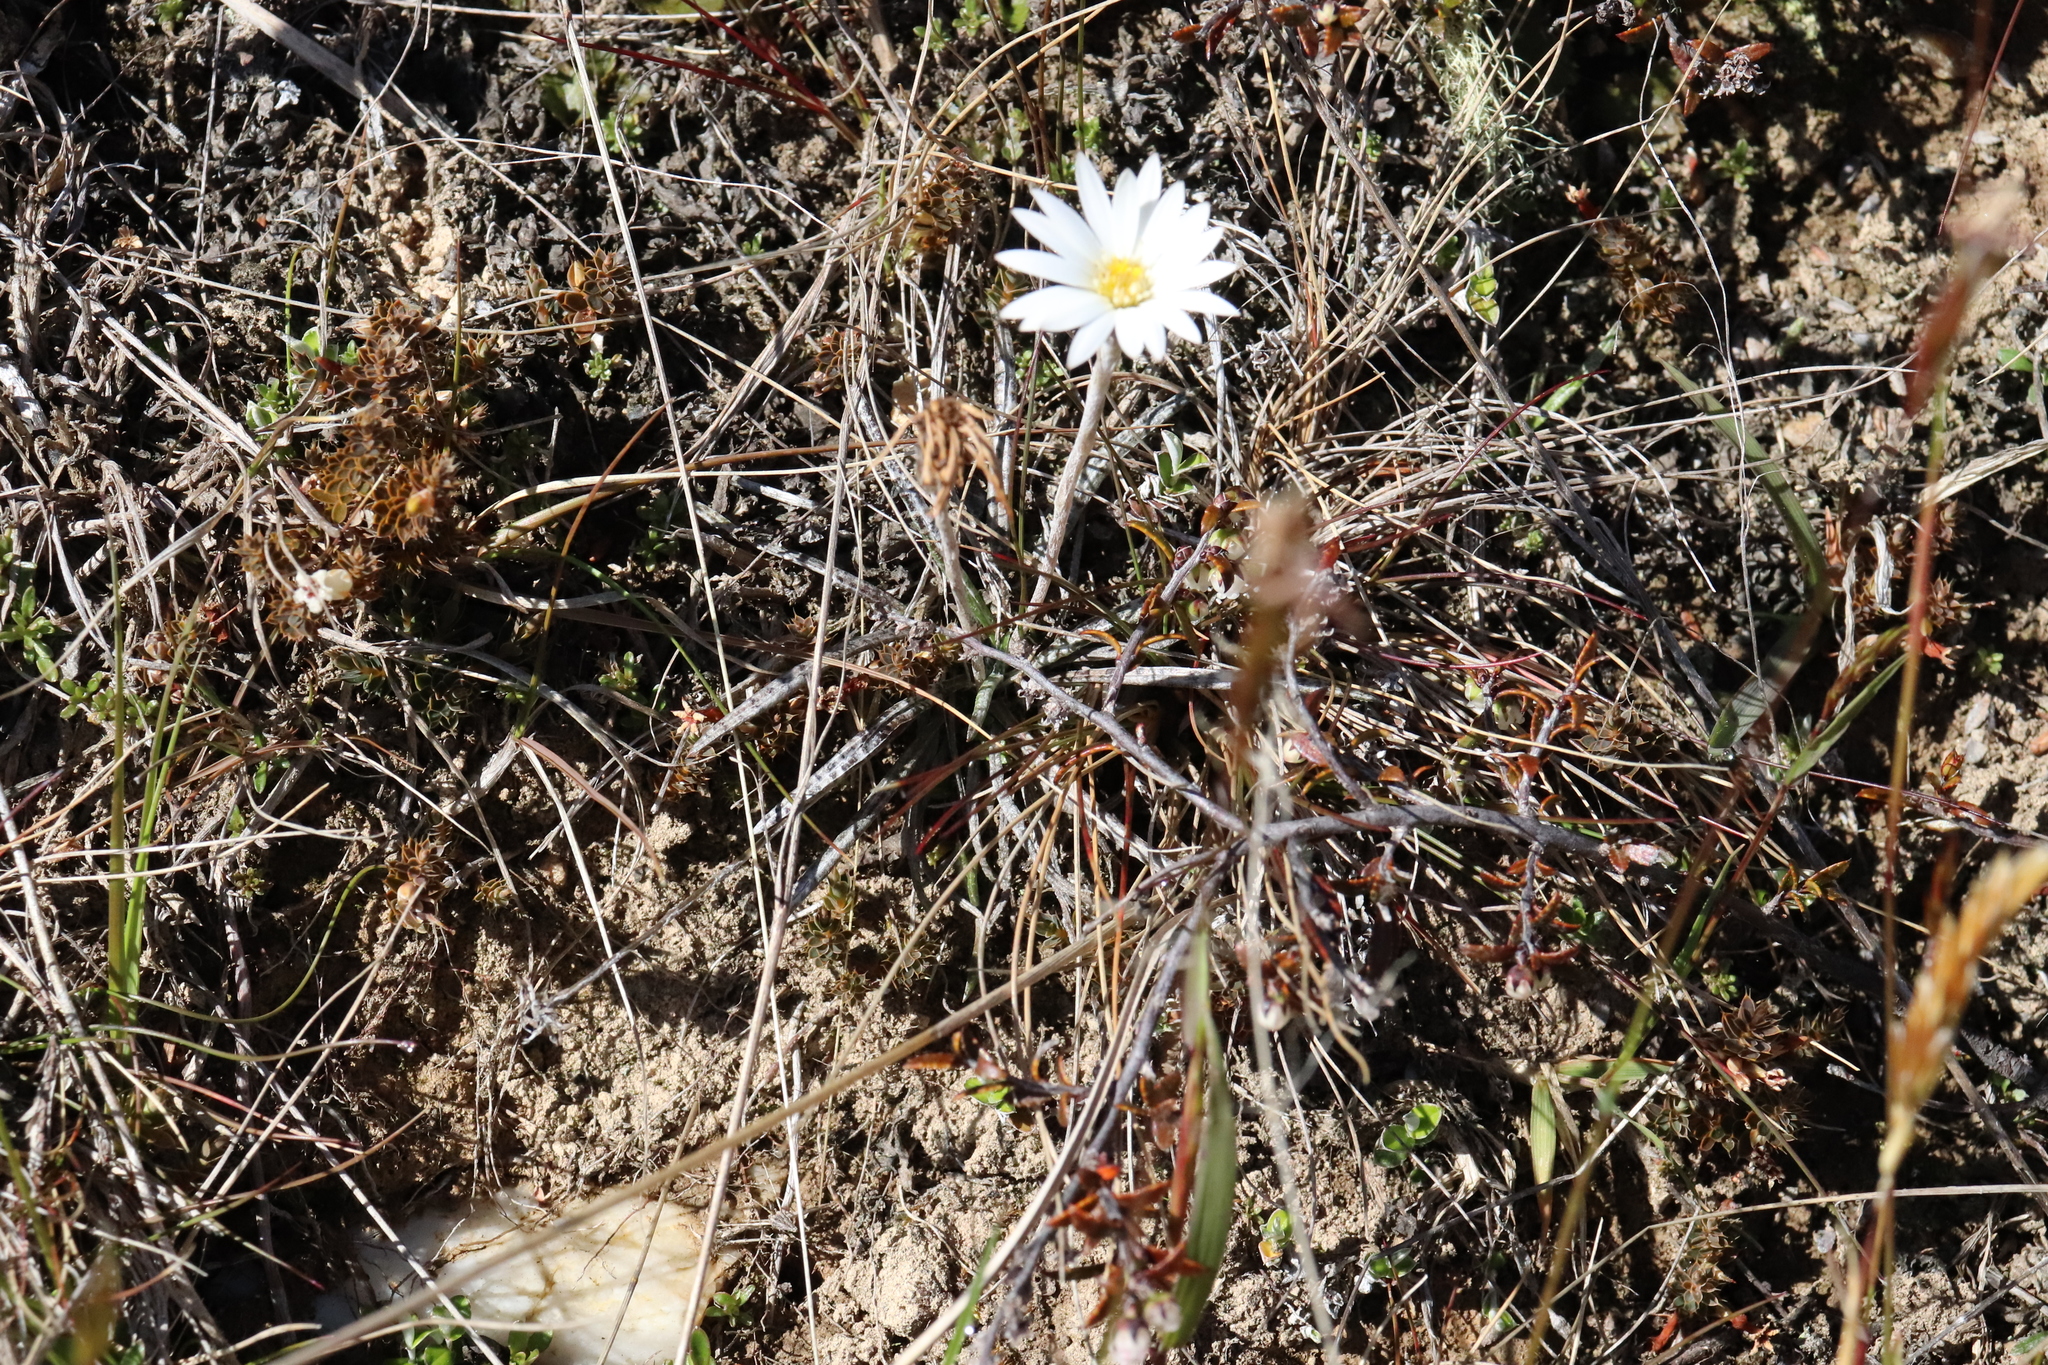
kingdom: Plantae
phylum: Tracheophyta
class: Magnoliopsida
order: Asterales
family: Asteraceae
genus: Celmisia
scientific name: Celmisia gracilenta
